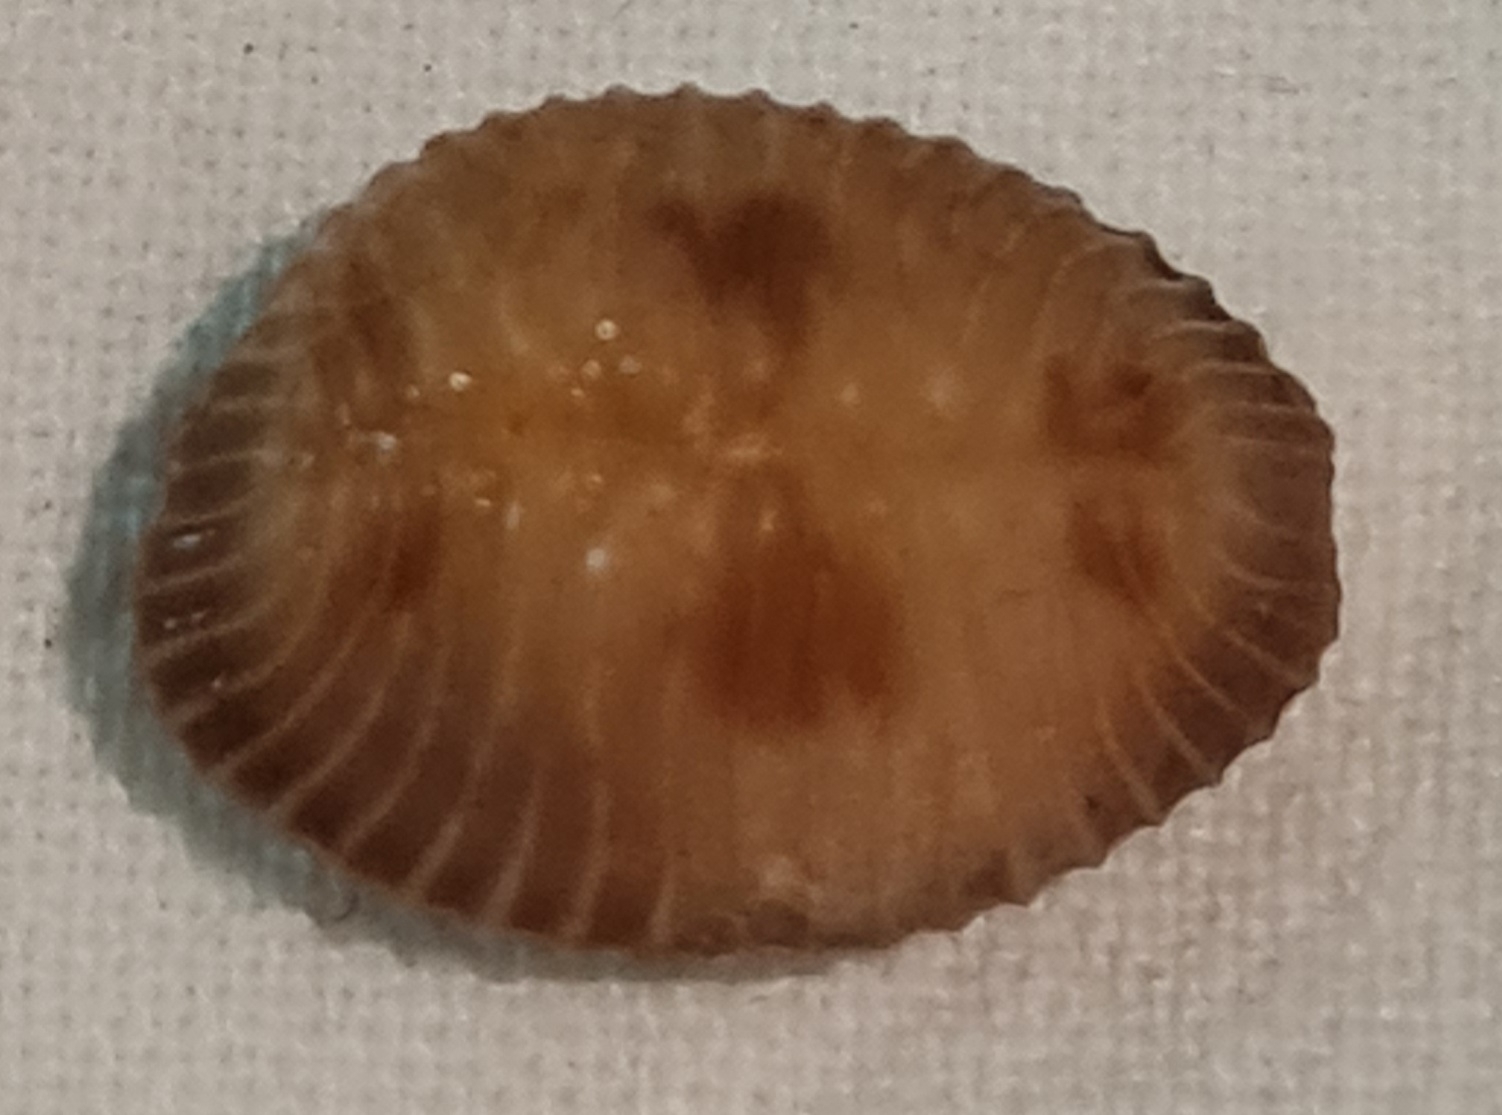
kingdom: Animalia
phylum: Mollusca
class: Gastropoda
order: Littorinimorpha
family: Triviidae
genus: Pusula
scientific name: Pusula pediculus
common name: Coffee bean trivia
